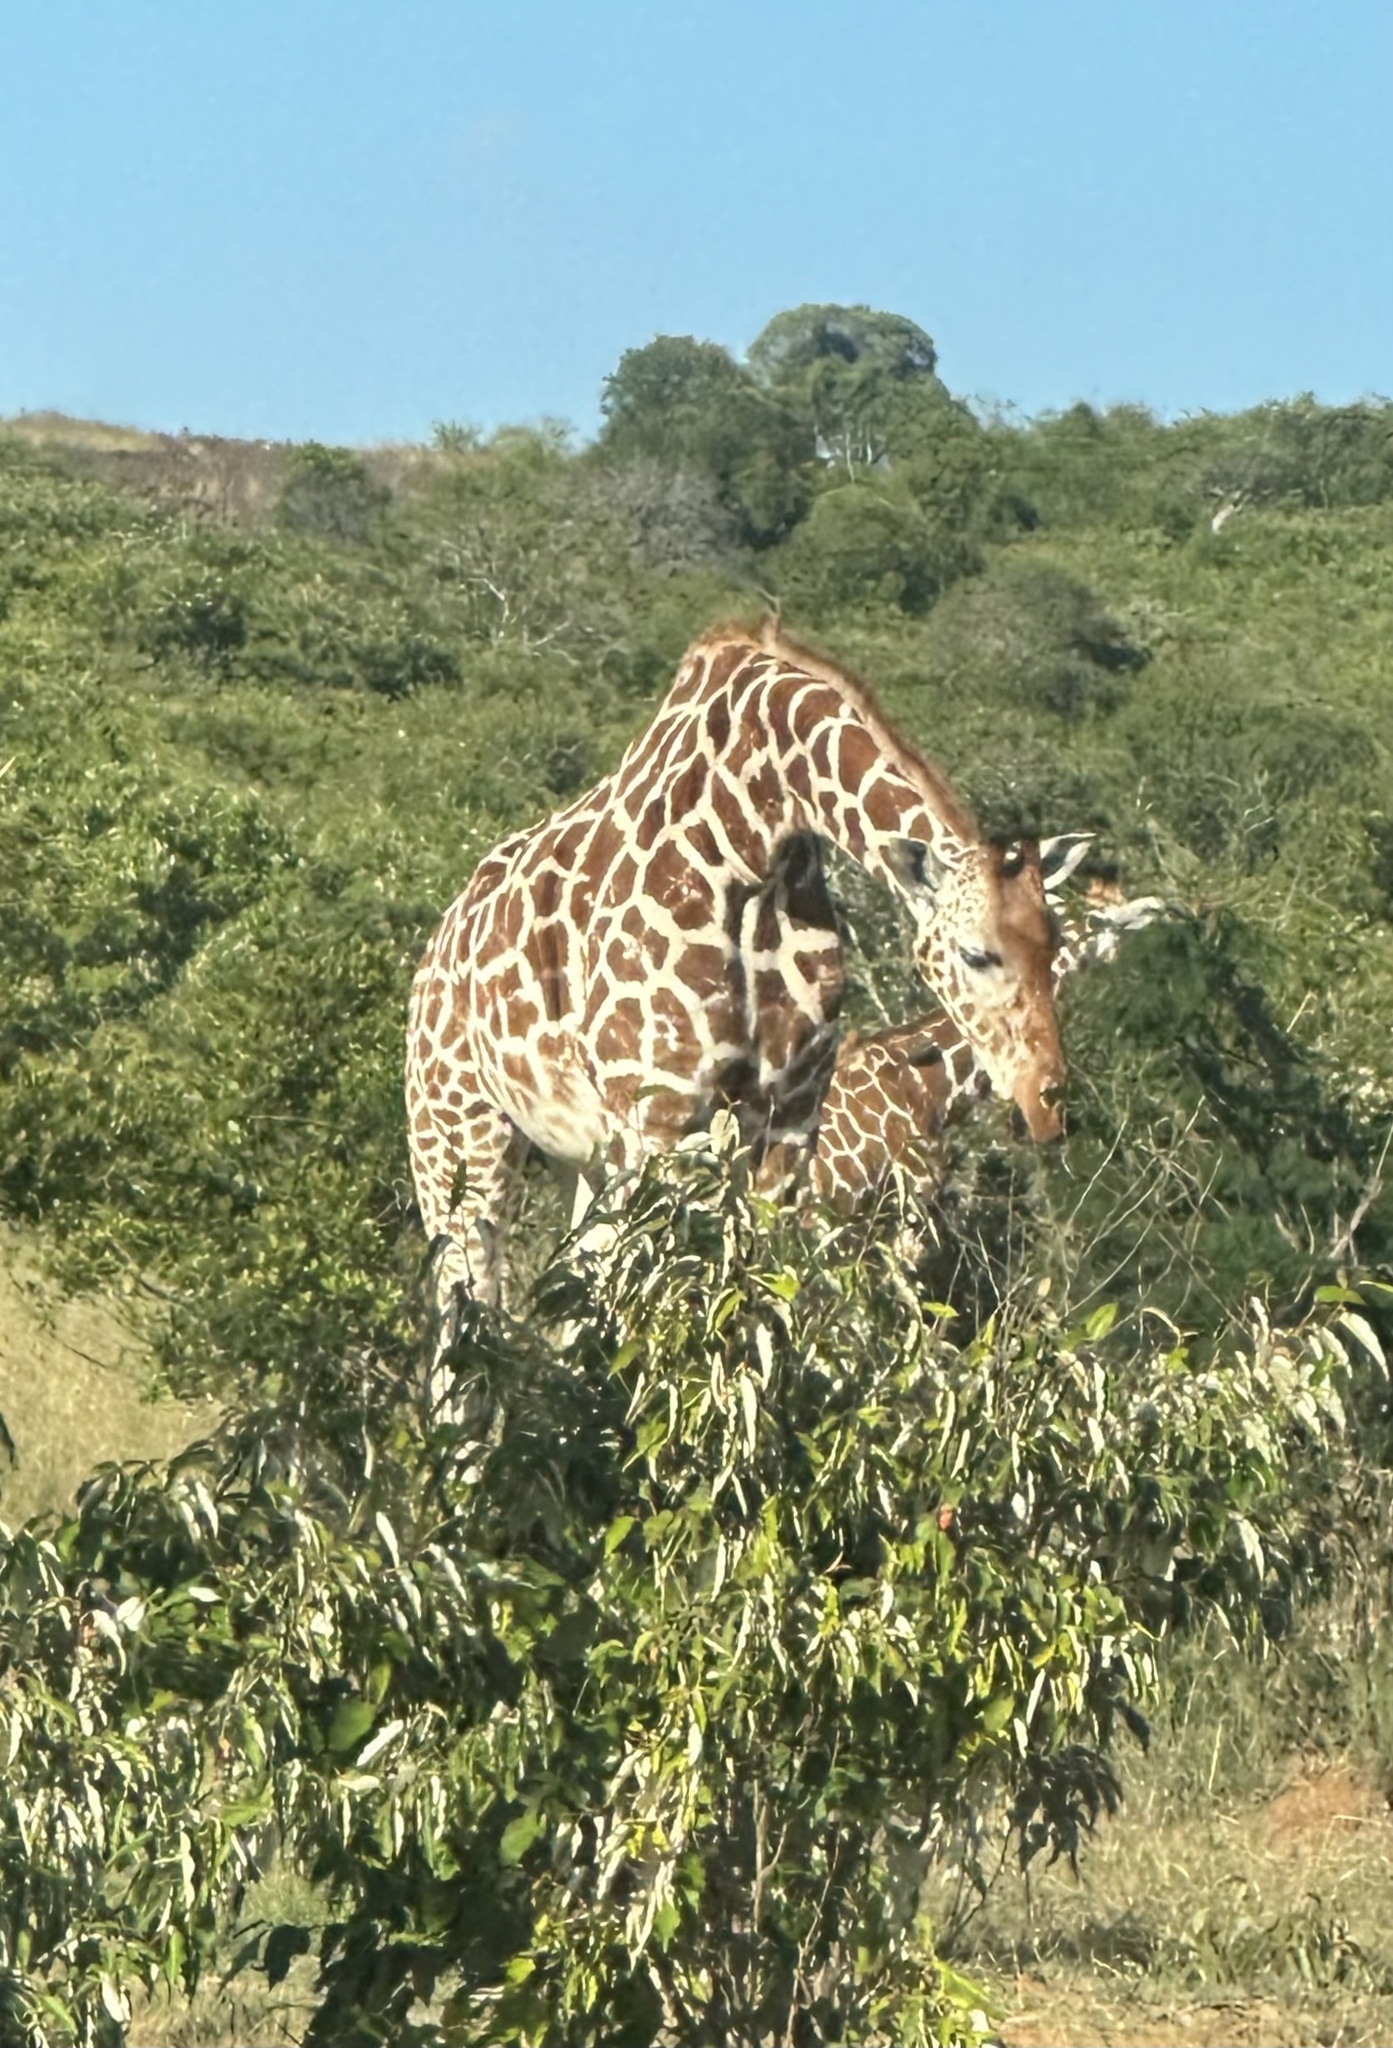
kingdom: Animalia
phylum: Chordata
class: Mammalia
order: Artiodactyla
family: Giraffidae
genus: Giraffa
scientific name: Giraffa reticulata
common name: Reticulated giraffe
